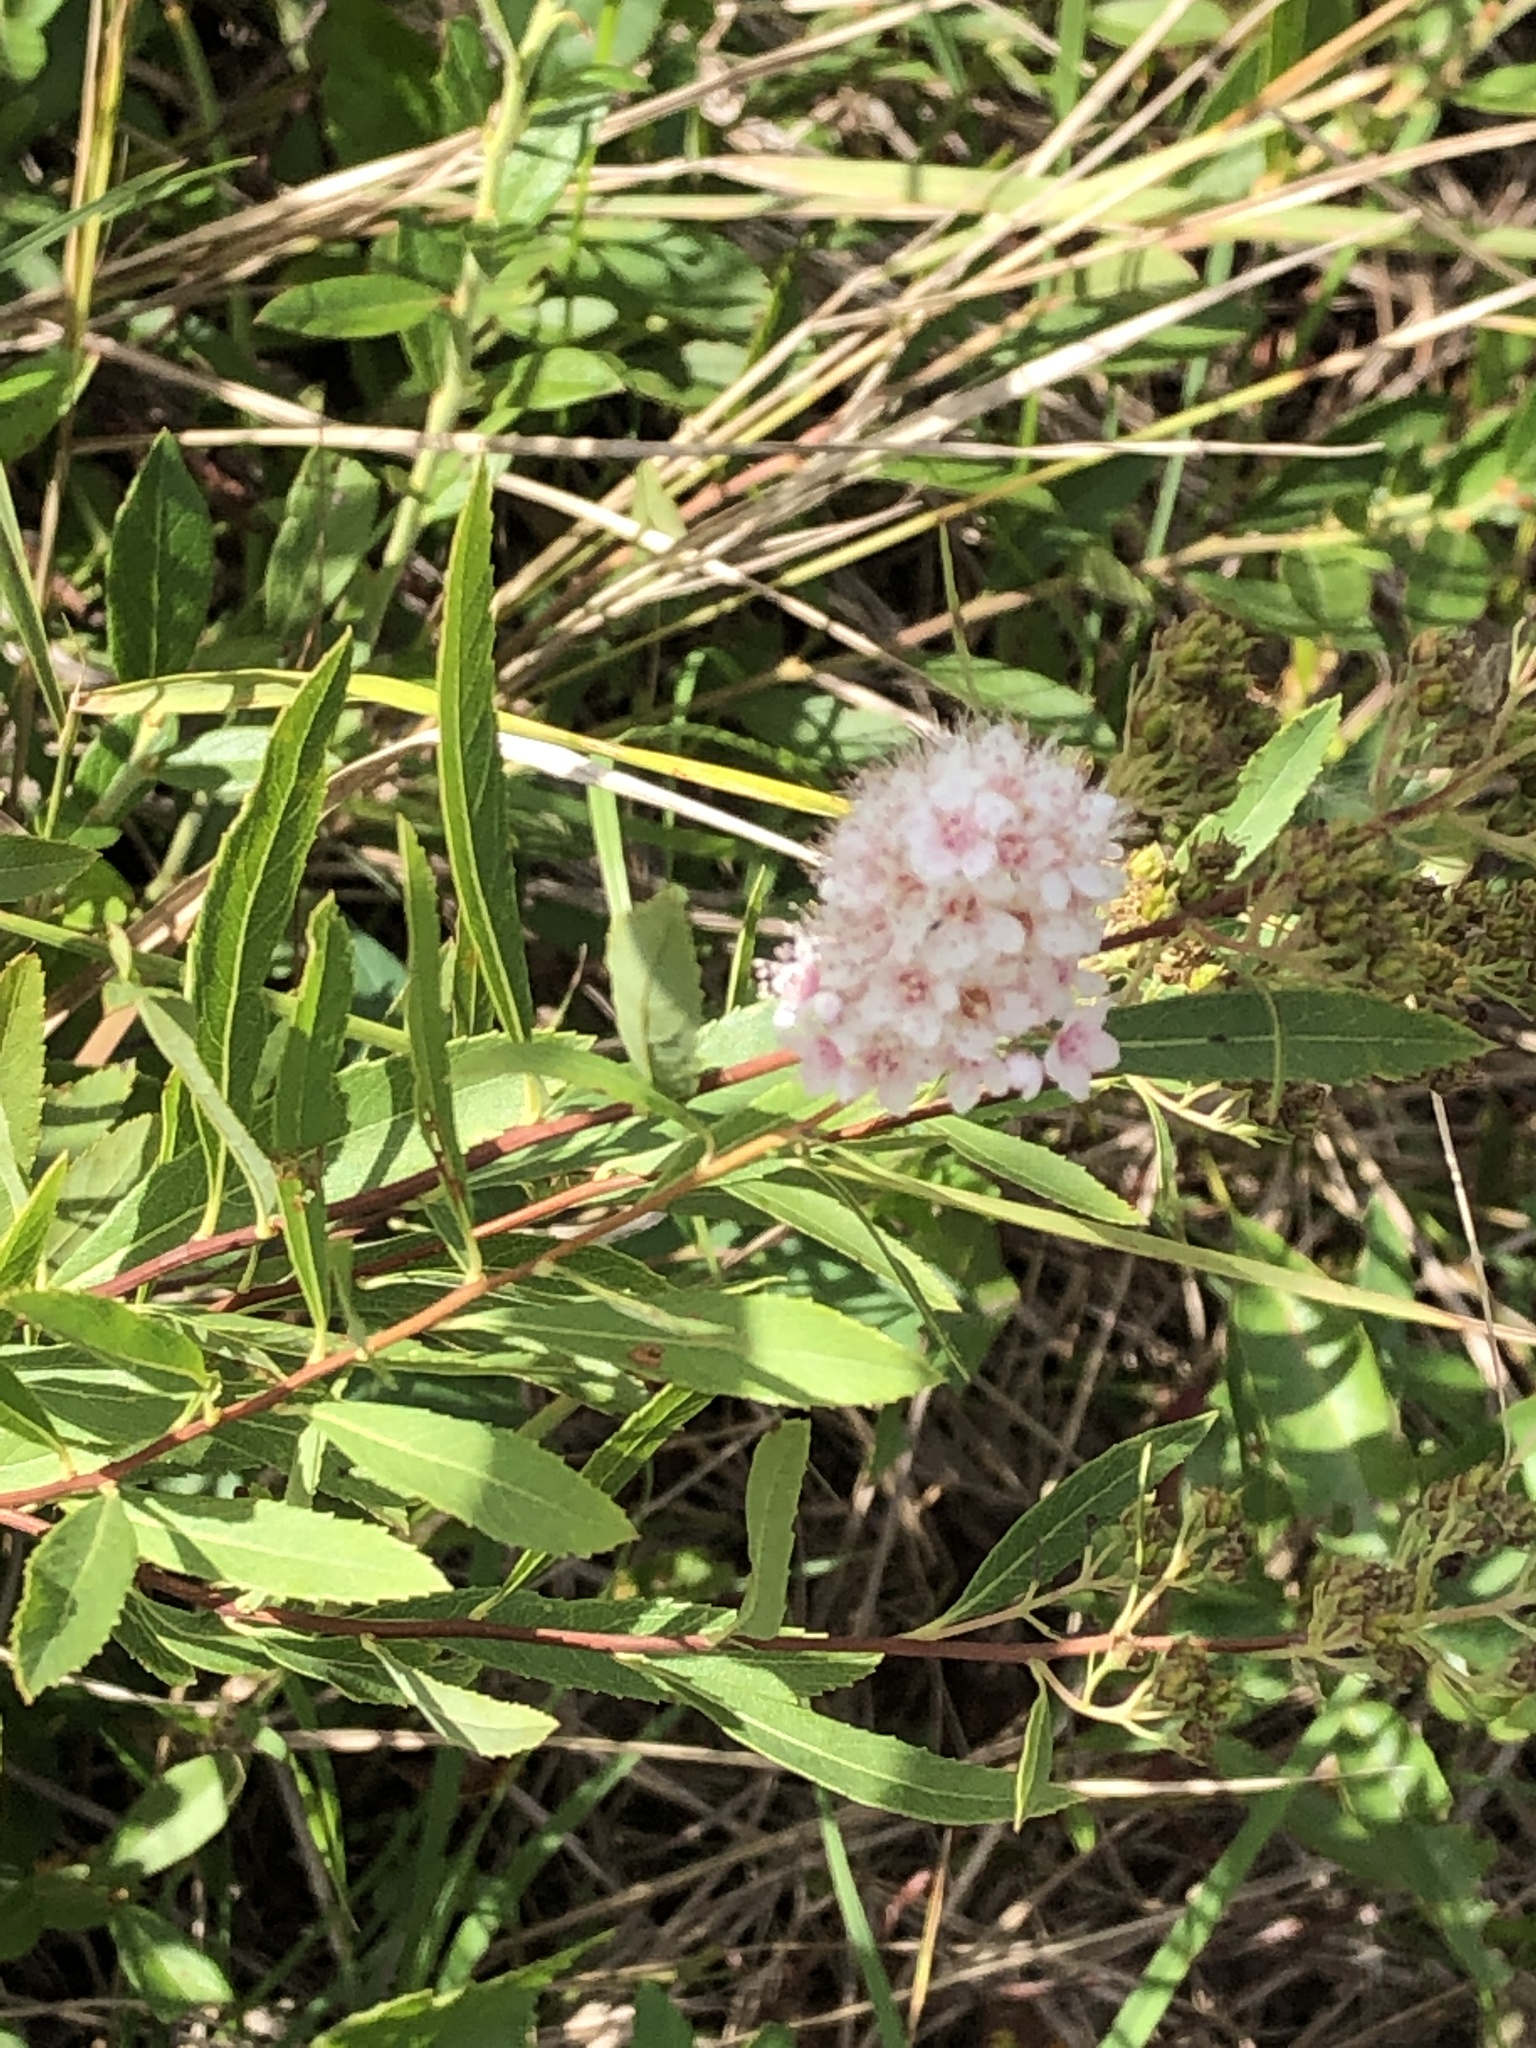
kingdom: Plantae
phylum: Tracheophyta
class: Magnoliopsida
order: Rosales
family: Rosaceae
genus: Spiraea
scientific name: Spiraea alba
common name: Pale bridewort
